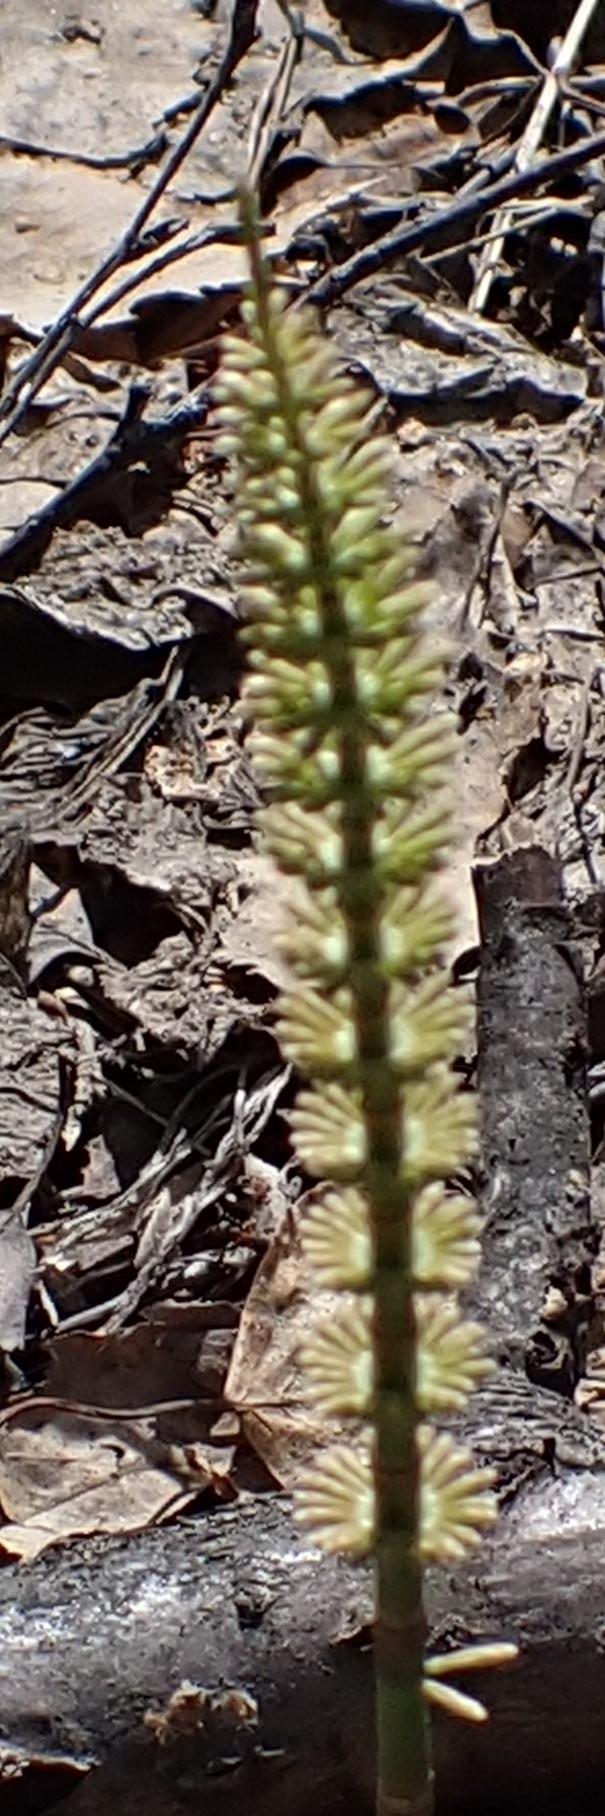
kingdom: Plantae
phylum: Tracheophyta
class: Polypodiopsida
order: Equisetales
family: Equisetaceae
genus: Equisetum
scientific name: Equisetum pratense
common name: Meadow horsetail
